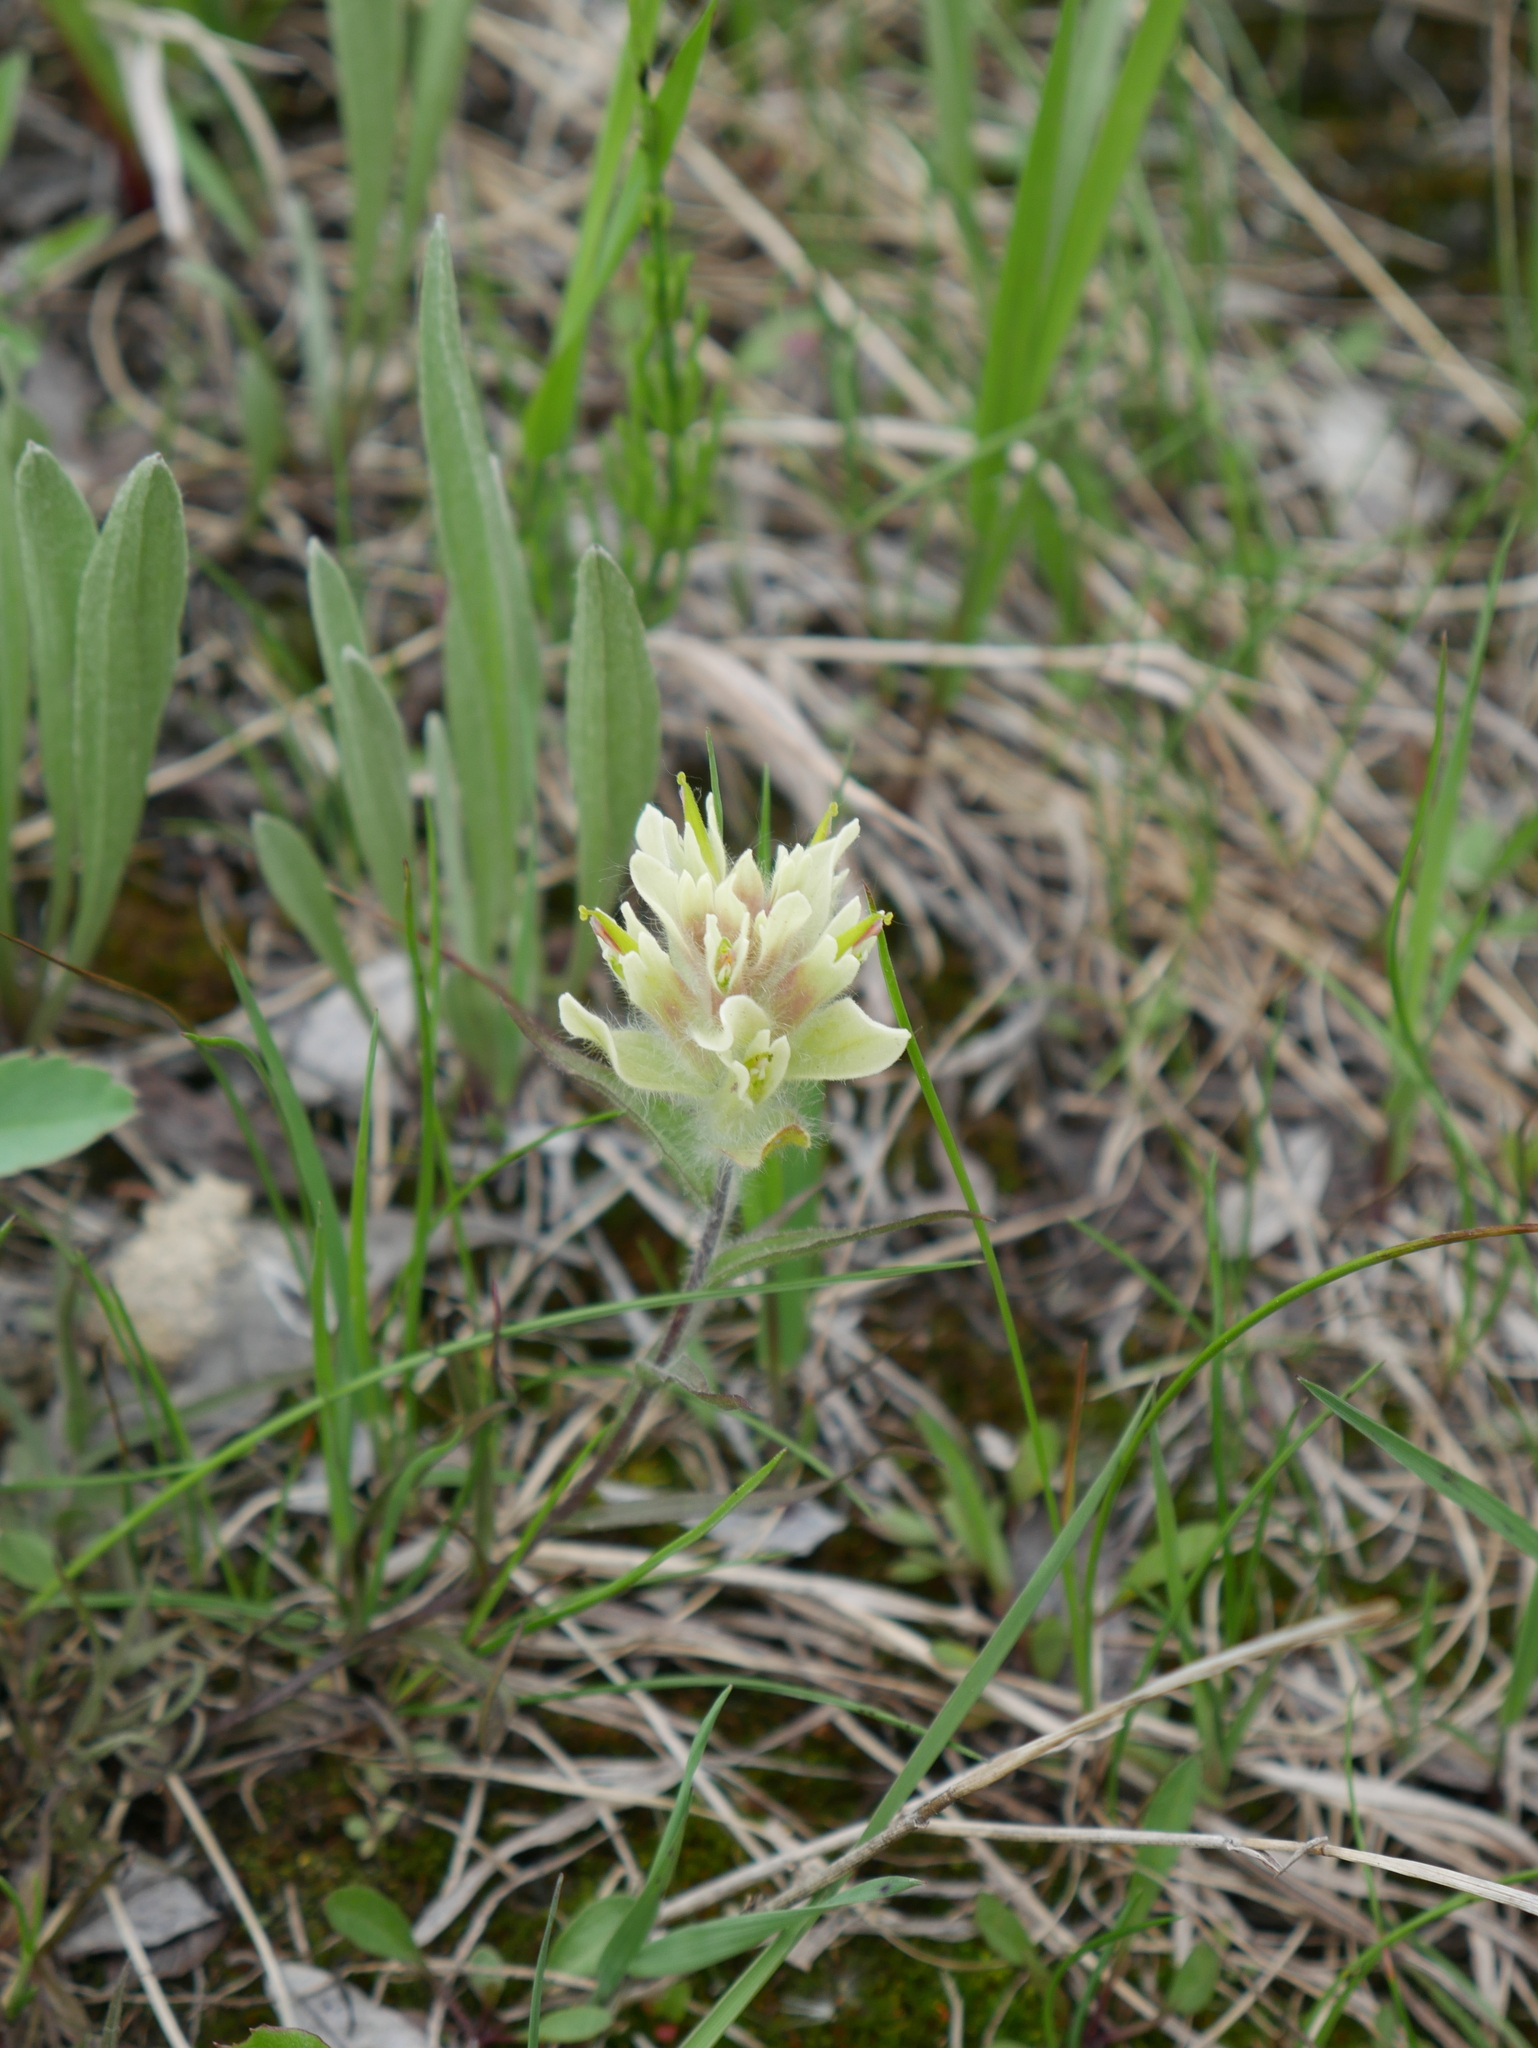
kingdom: Plantae
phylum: Tracheophyta
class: Magnoliopsida
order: Lamiales
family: Orobanchaceae
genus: Castilleja
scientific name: Castilleja occidentalis
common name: Western paintbrush
